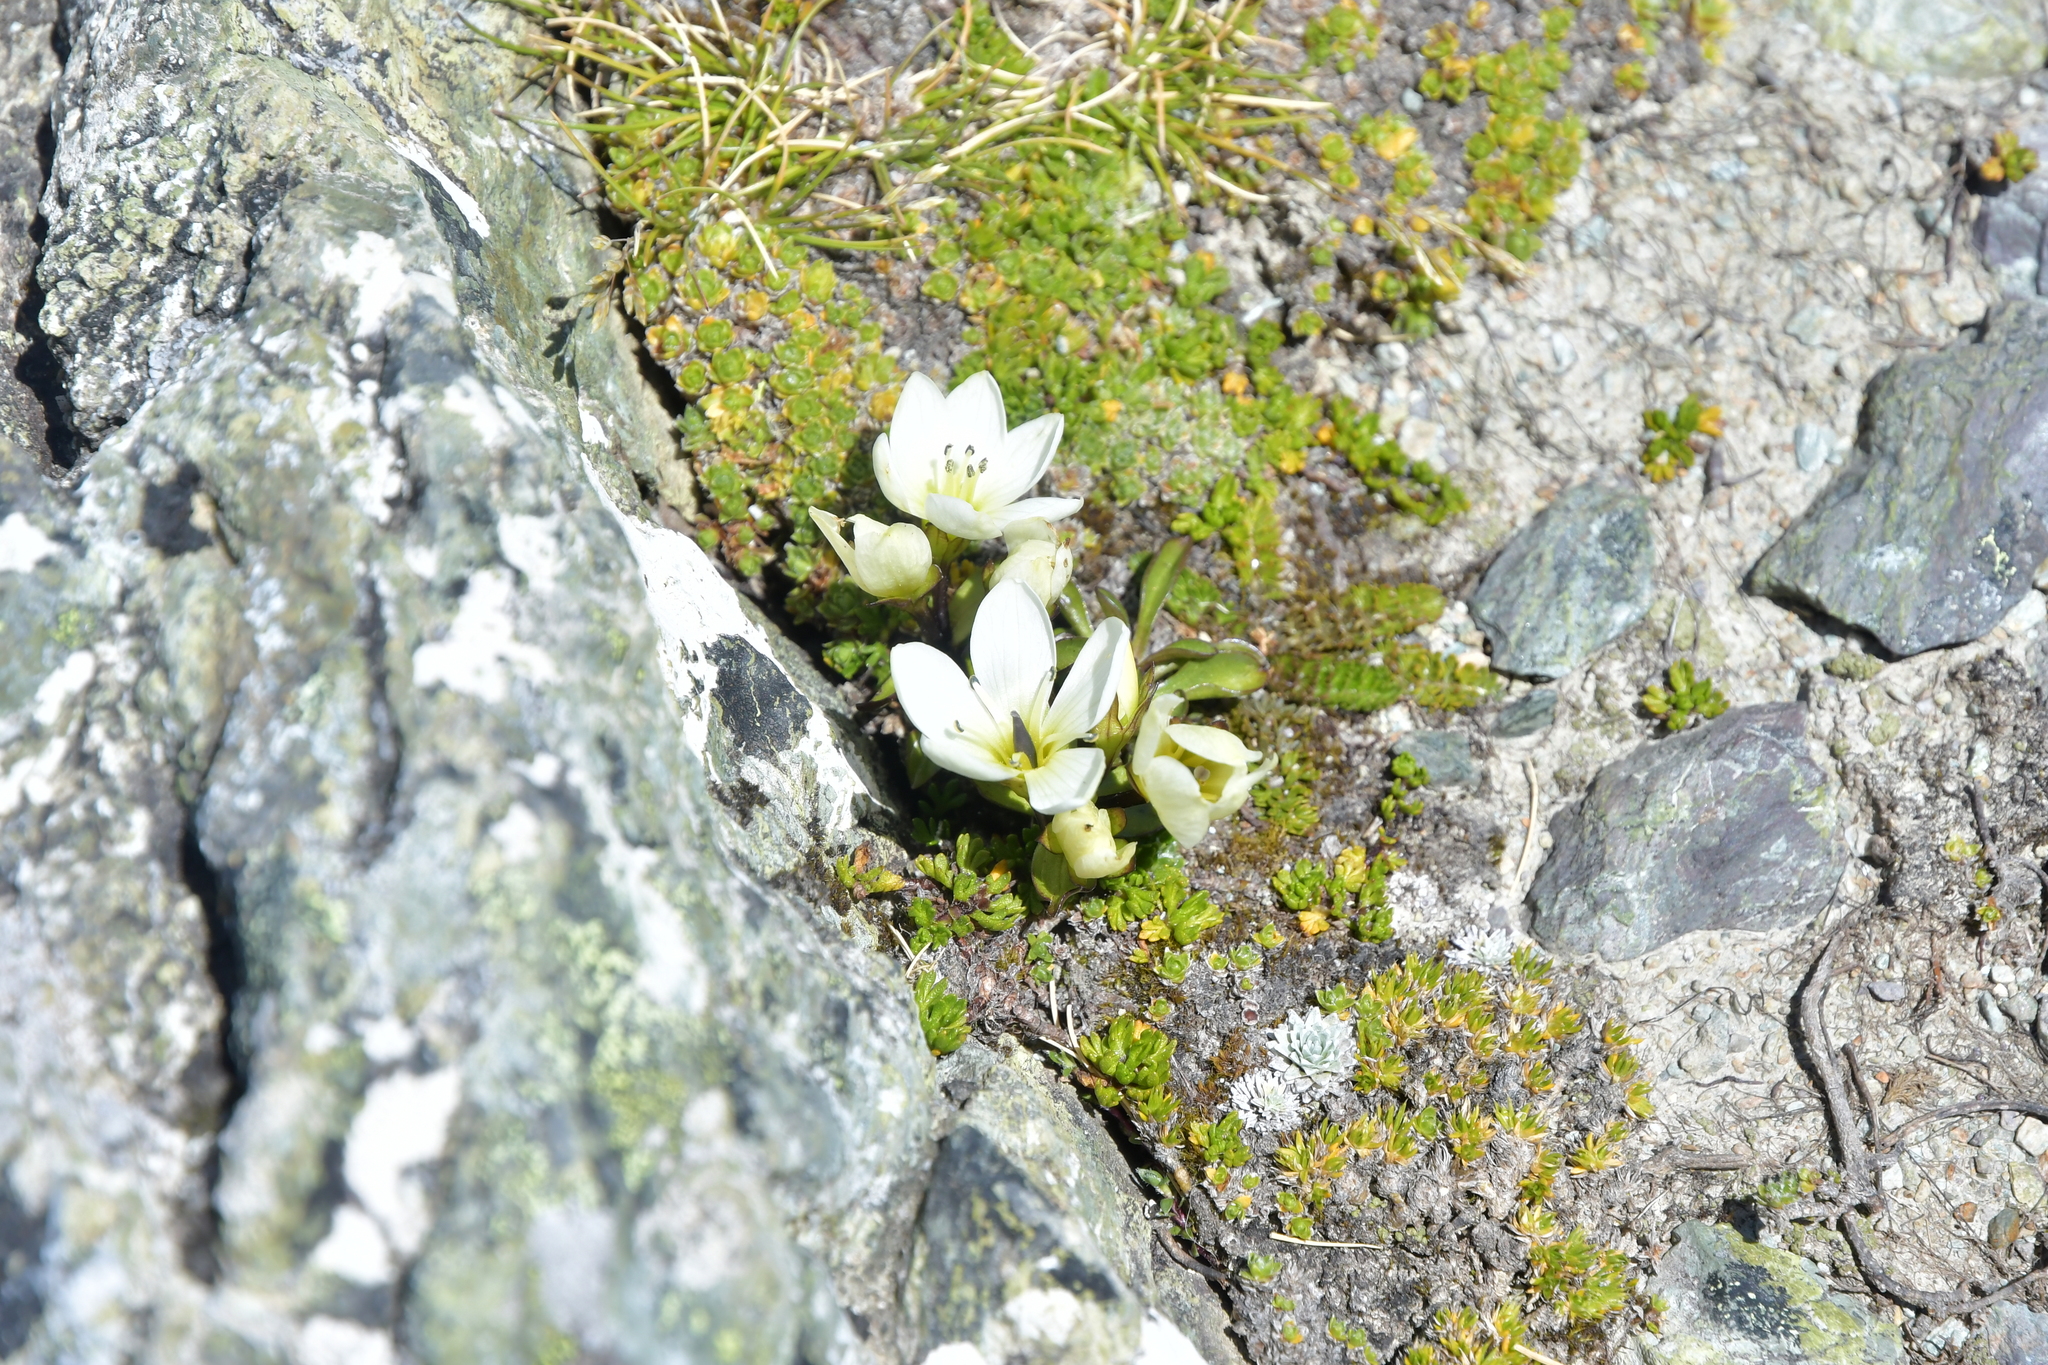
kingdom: Plantae
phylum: Tracheophyta
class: Magnoliopsida
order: Gentianales
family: Gentianaceae
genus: Gentianella
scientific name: Gentianella bellidifolia
